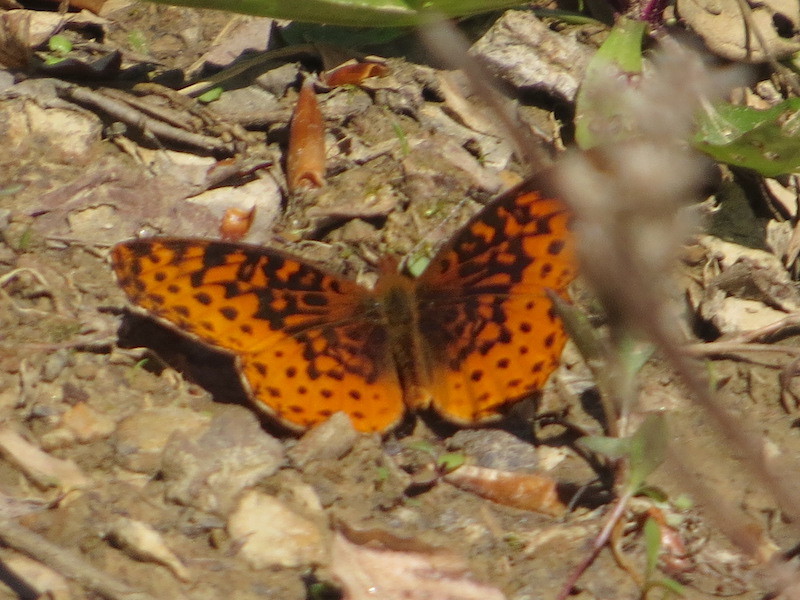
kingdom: Animalia
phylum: Arthropoda
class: Insecta
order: Lepidoptera
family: Nymphalidae
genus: Clossiana
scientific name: Clossiana toddi
